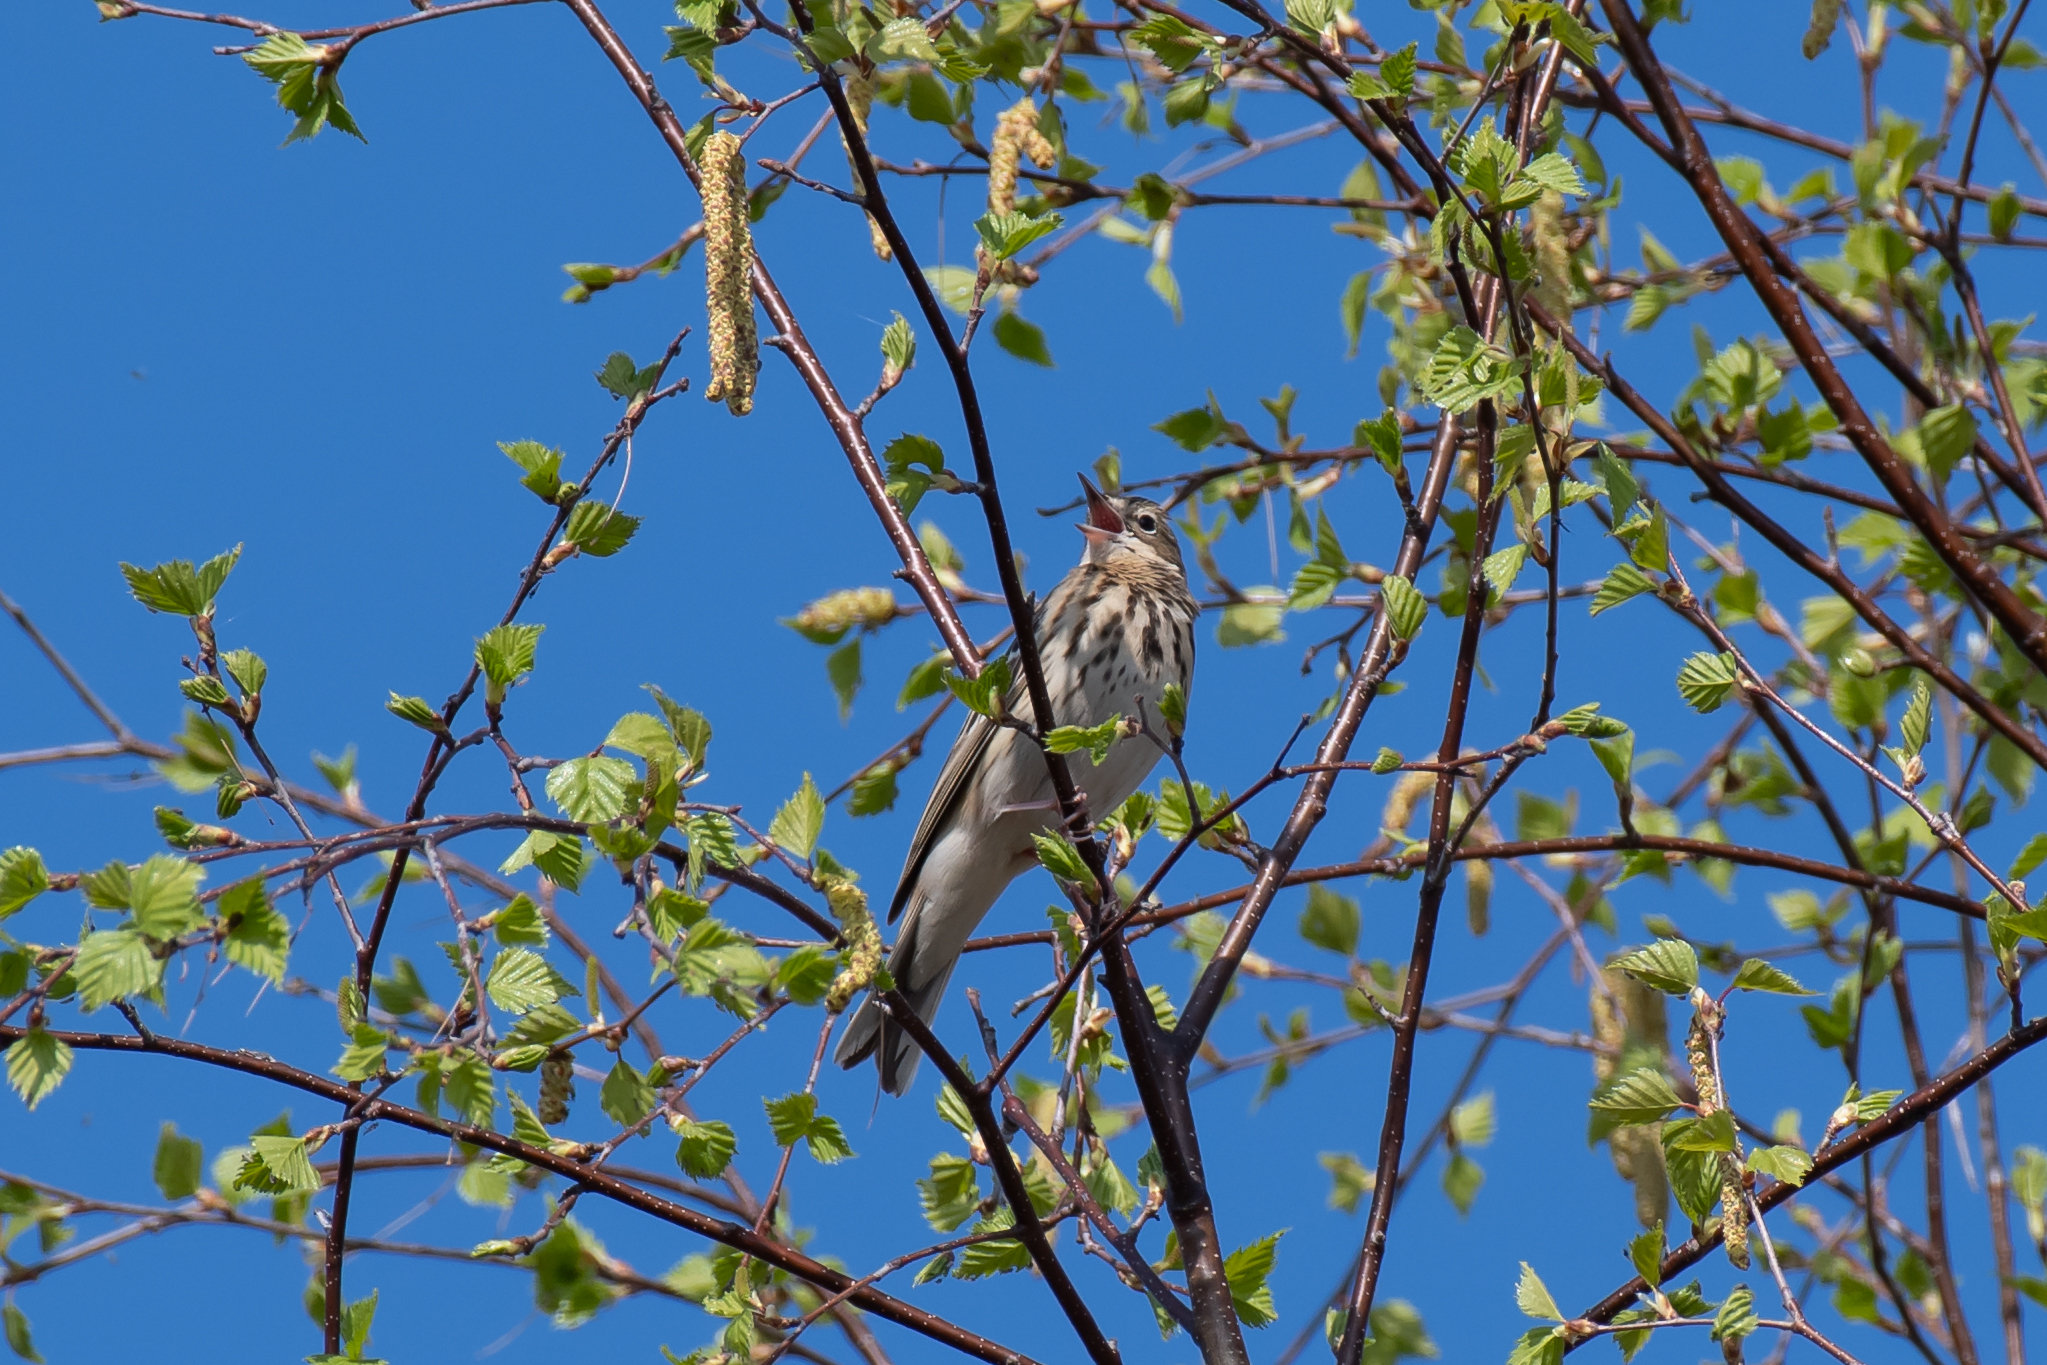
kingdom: Animalia
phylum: Chordata
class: Aves
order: Passeriformes
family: Motacillidae
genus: Anthus
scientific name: Anthus trivialis
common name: Tree pipit
